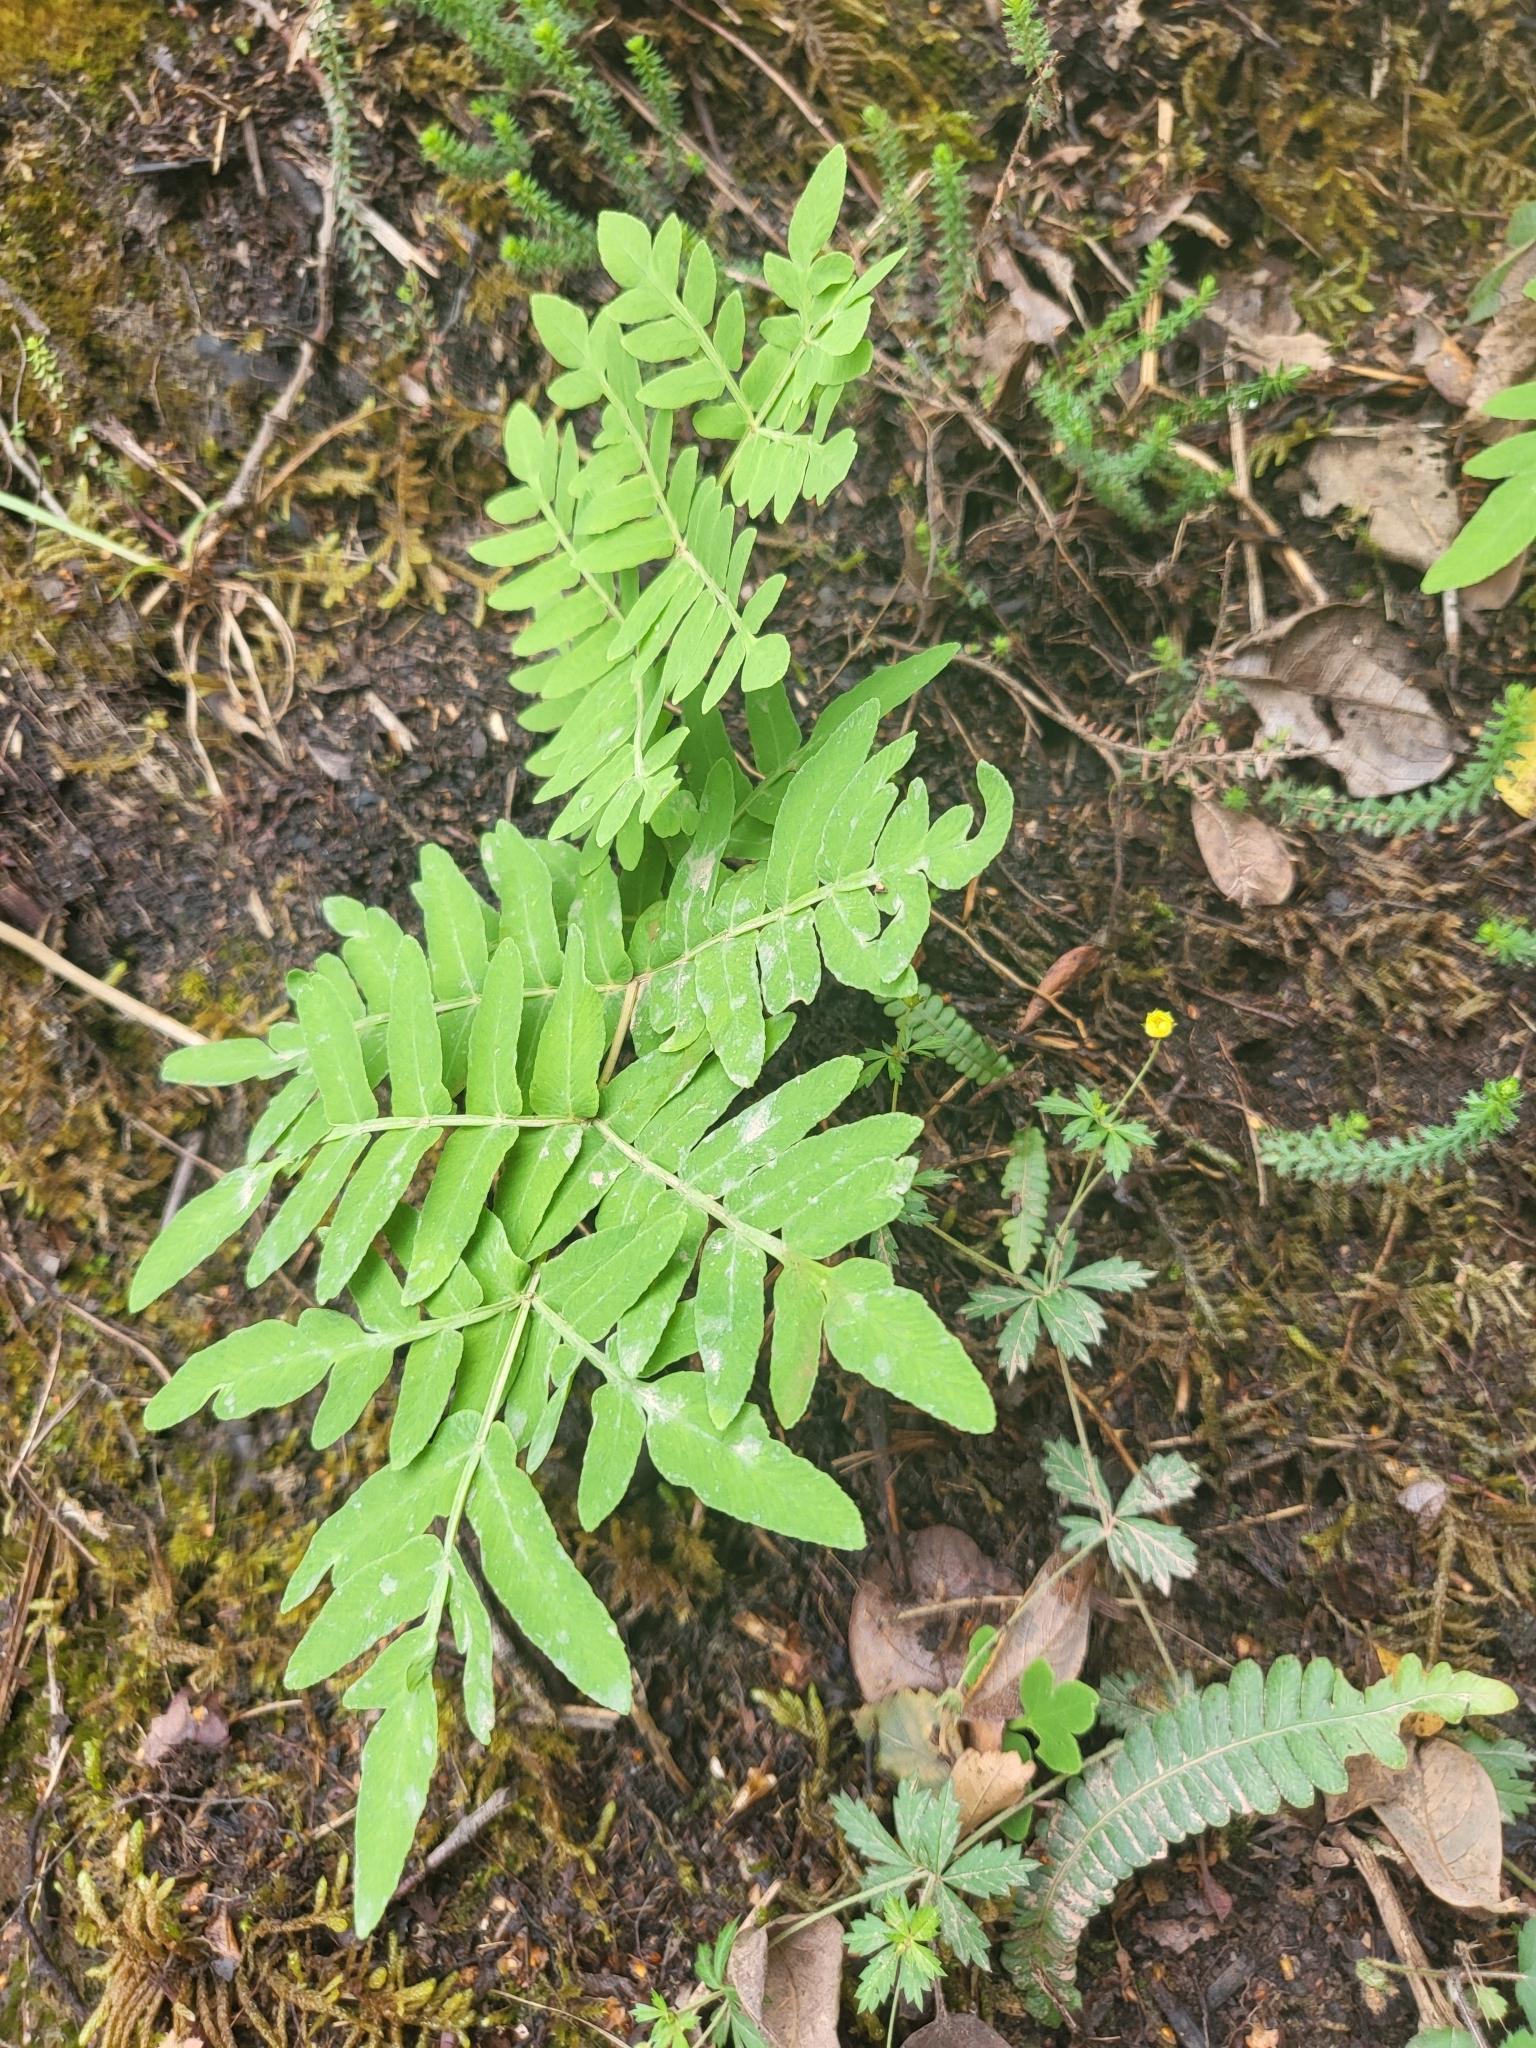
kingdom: Plantae
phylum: Tracheophyta
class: Polypodiopsida
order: Osmundales
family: Osmundaceae
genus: Osmunda
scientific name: Osmunda regalis
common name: Royal fern
